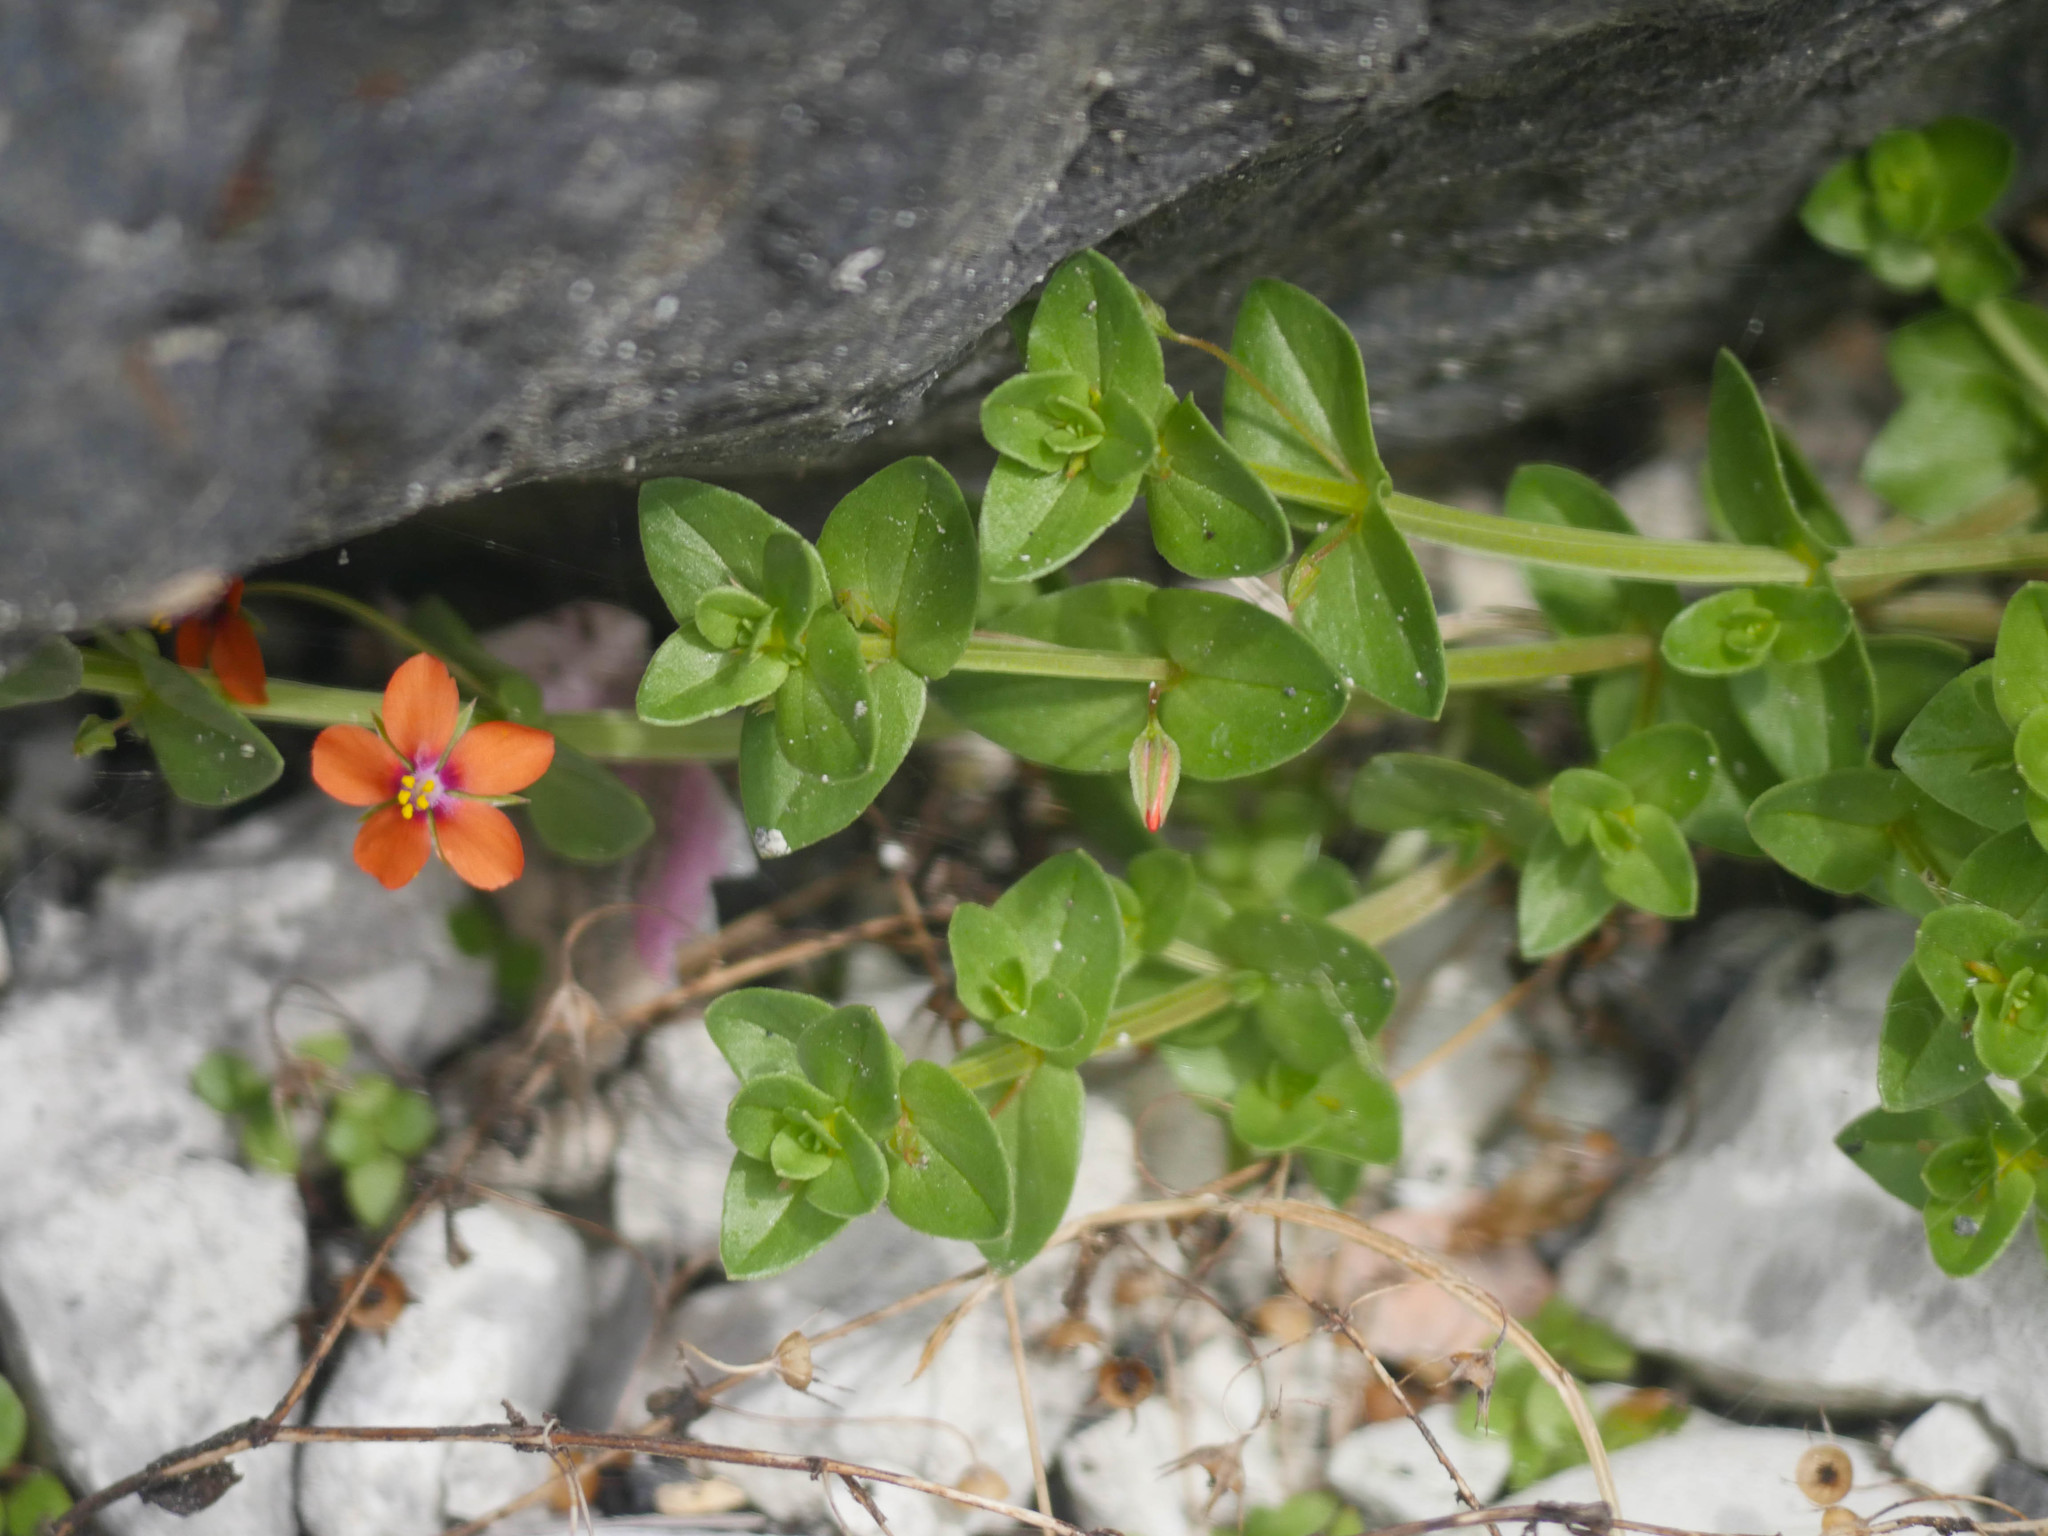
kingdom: Plantae
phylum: Tracheophyta
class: Magnoliopsida
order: Ericales
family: Primulaceae
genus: Lysimachia
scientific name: Lysimachia arvensis
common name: Scarlet pimpernel
